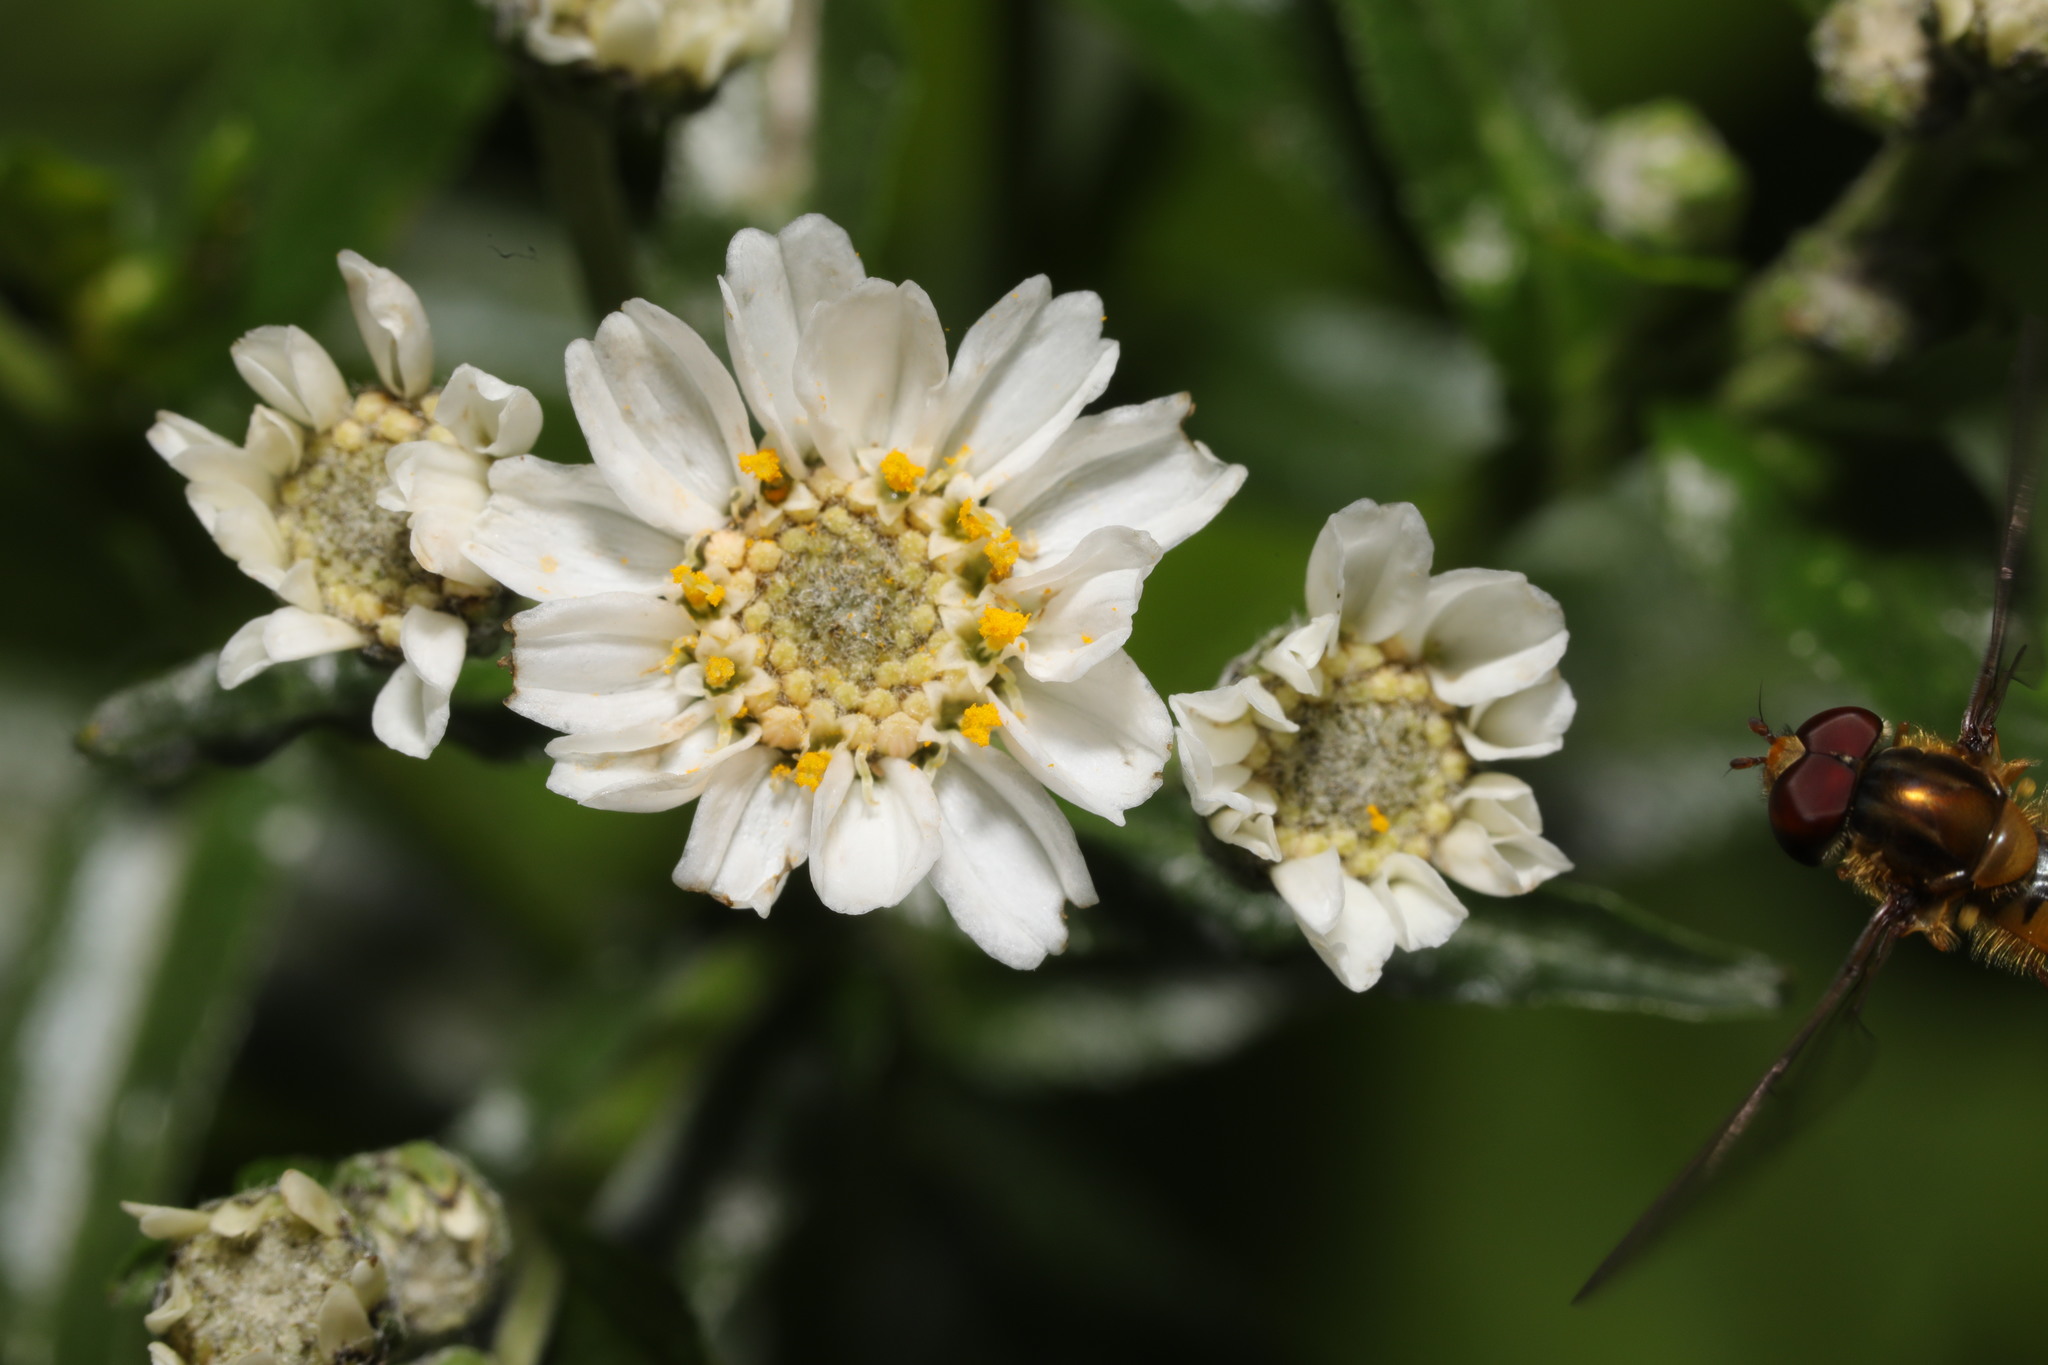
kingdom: Plantae
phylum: Tracheophyta
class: Magnoliopsida
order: Asterales
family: Asteraceae
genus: Achillea
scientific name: Achillea ptarmica
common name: Sneezeweed
